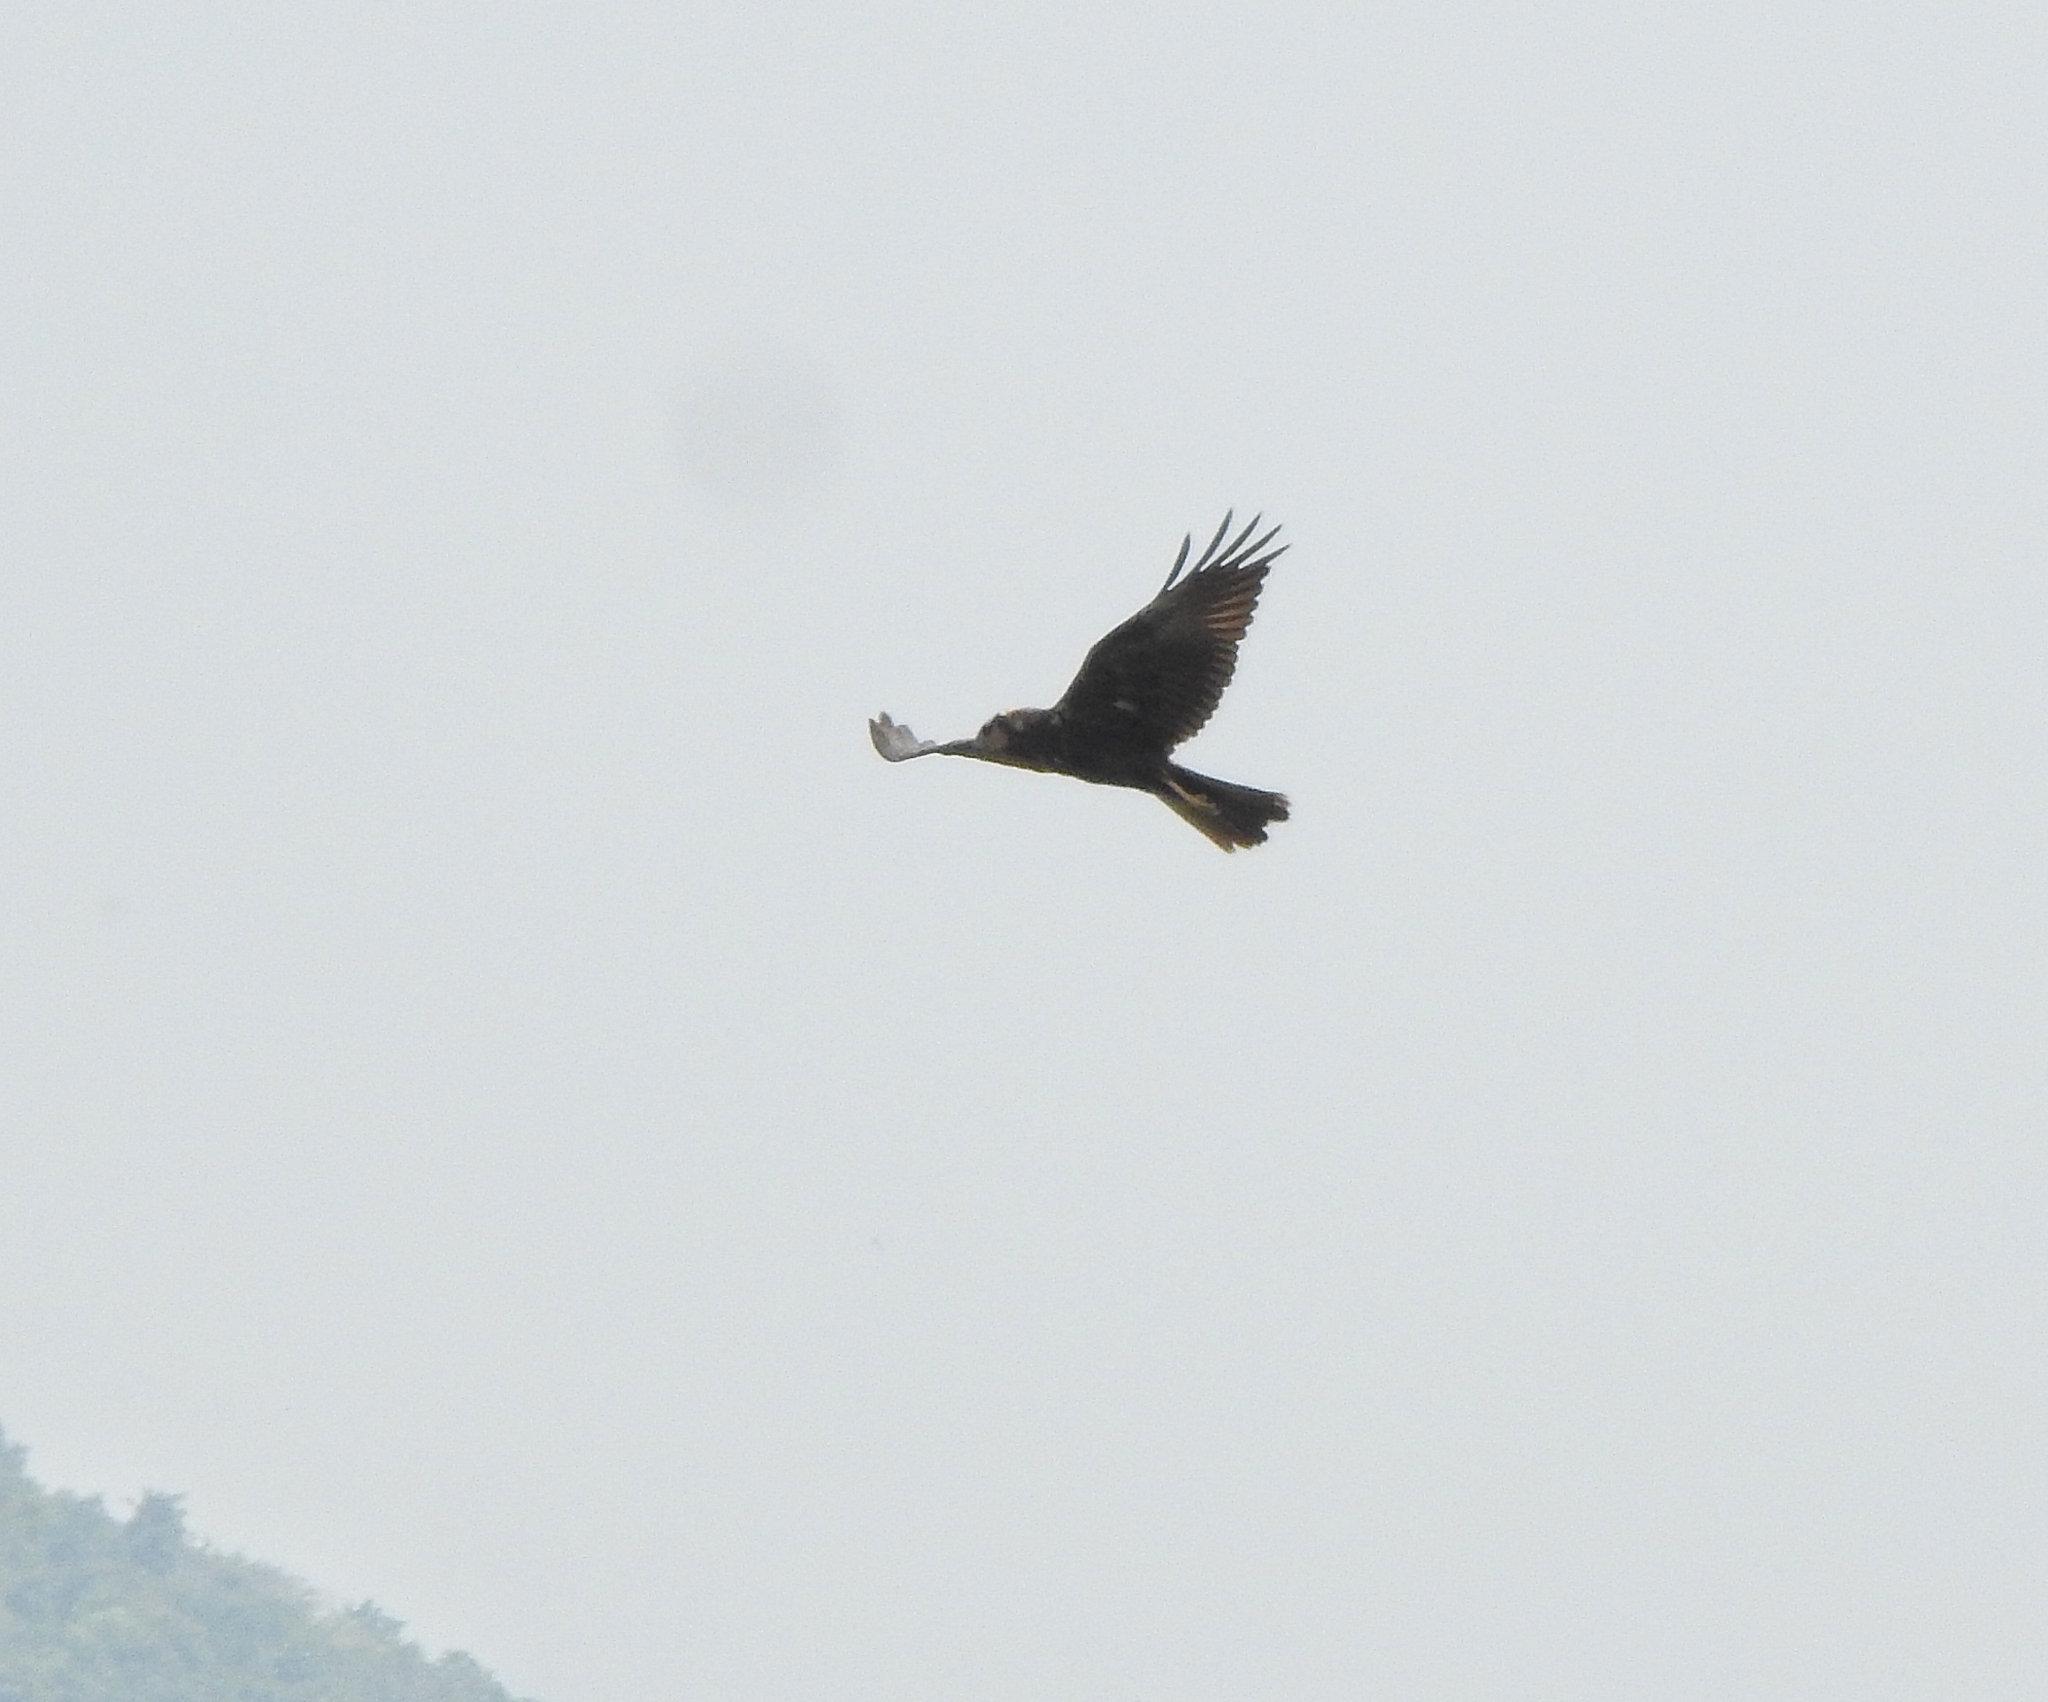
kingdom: Animalia
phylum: Chordata
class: Aves
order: Accipitriformes
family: Accipitridae
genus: Circus
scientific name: Circus aeruginosus
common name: Western marsh harrier
